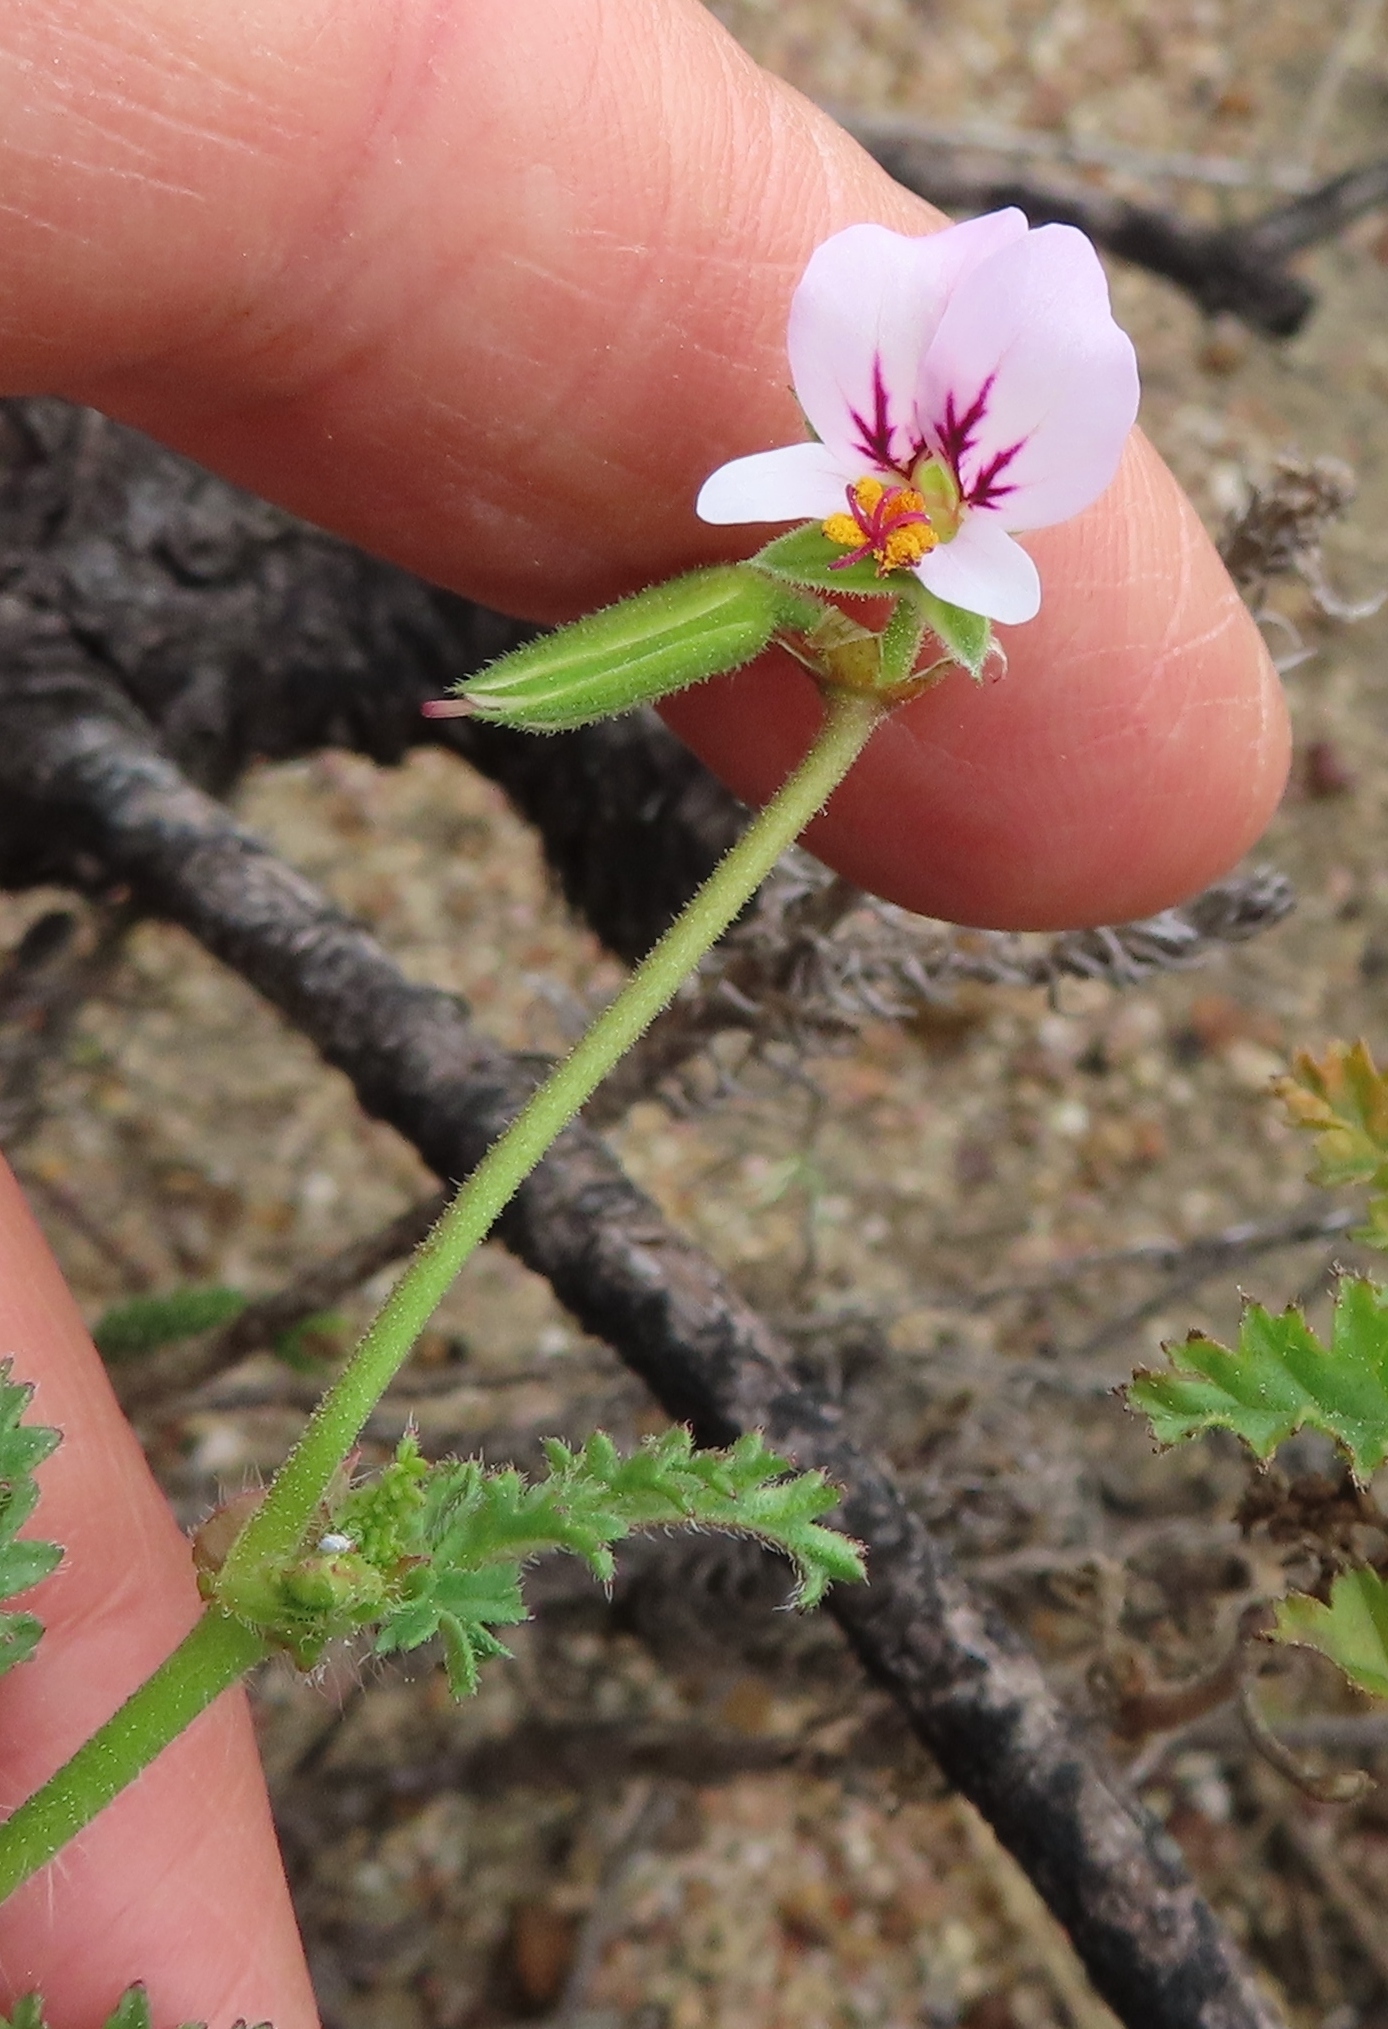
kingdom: Plantae
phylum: Tracheophyta
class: Magnoliopsida
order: Geraniales
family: Geraniaceae
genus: Pelargonium
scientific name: Pelargonium myrrhifolium
